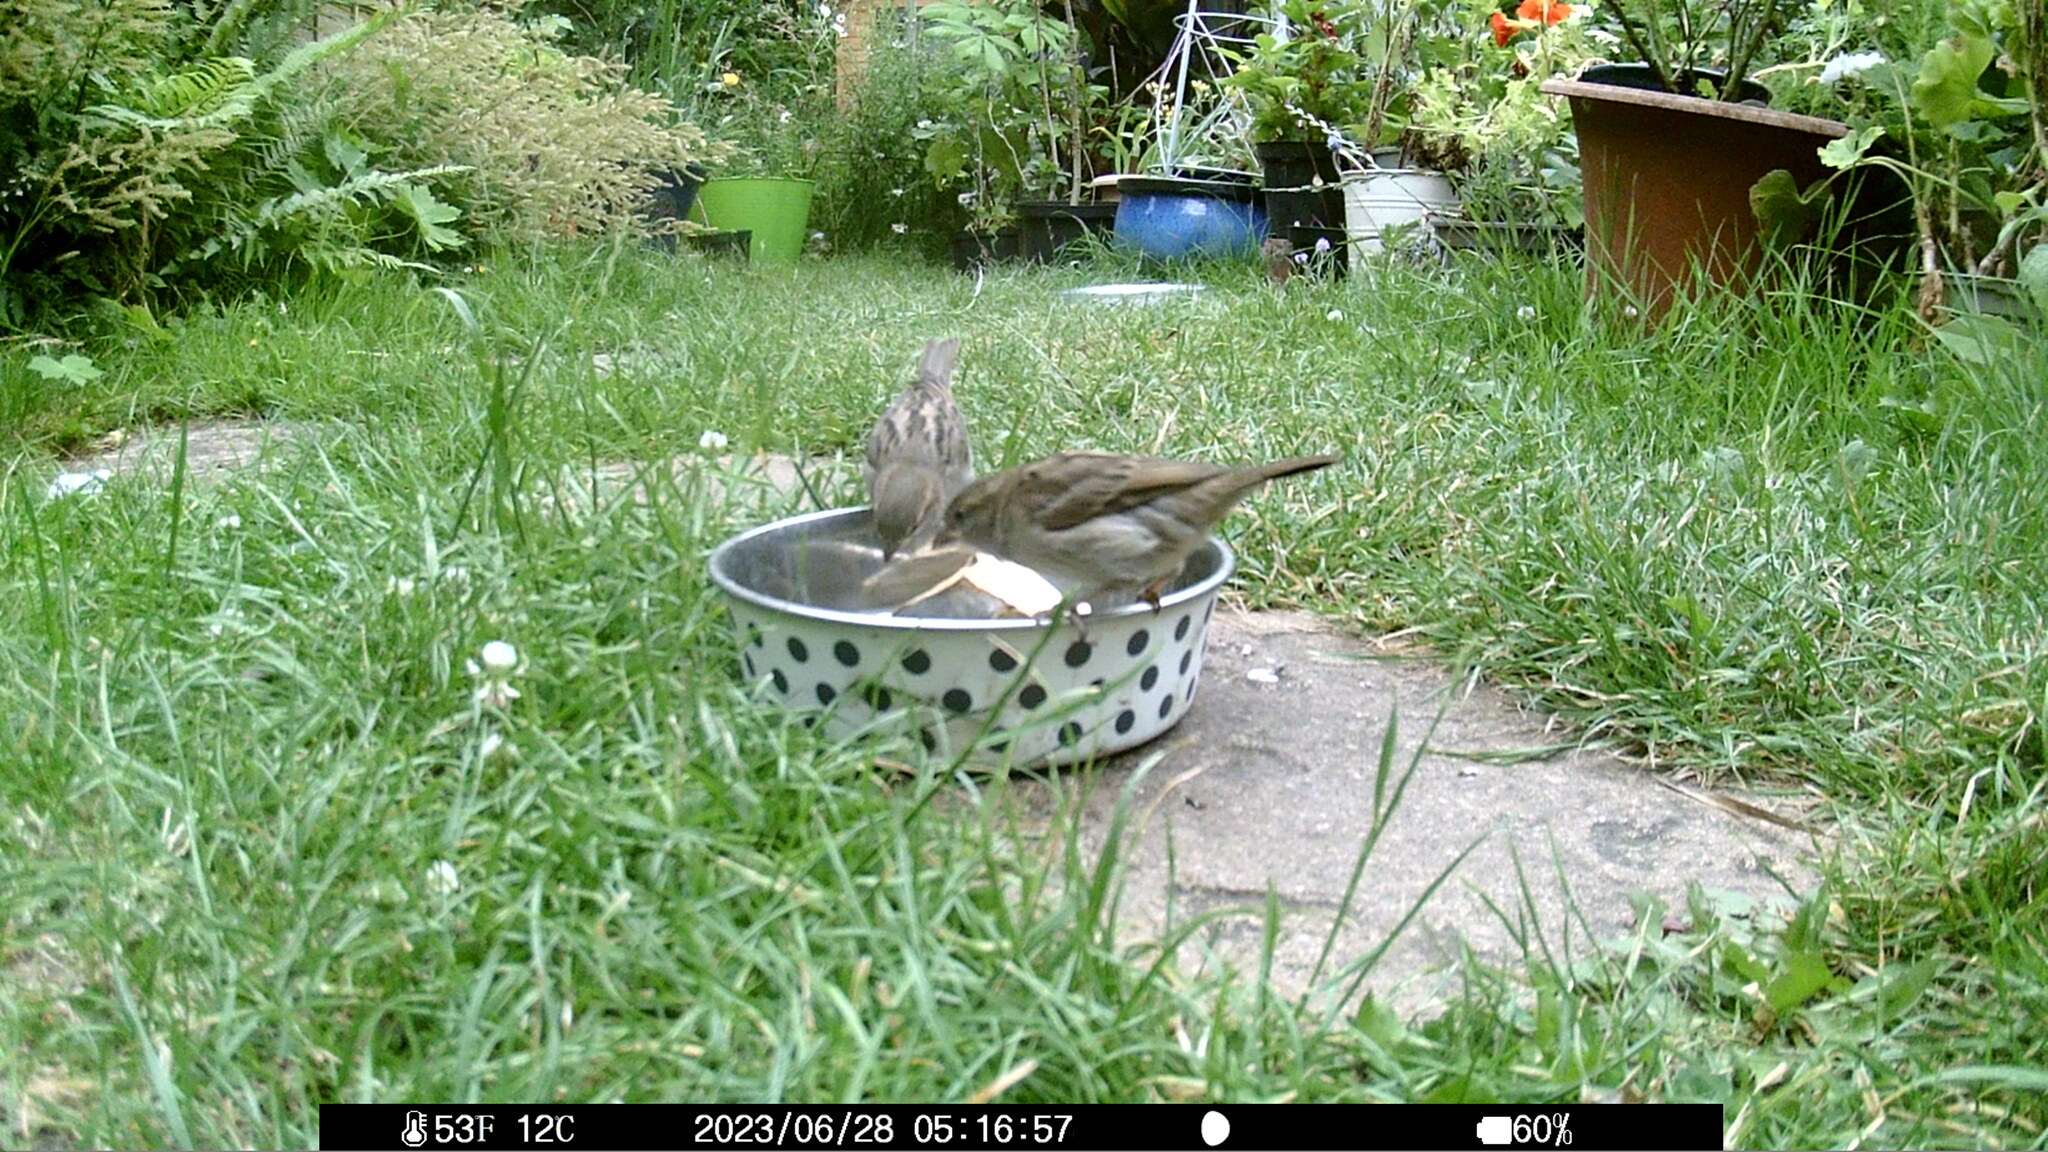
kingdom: Animalia
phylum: Chordata
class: Aves
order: Passeriformes
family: Passeridae
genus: Passer
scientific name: Passer domesticus
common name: House sparrow
